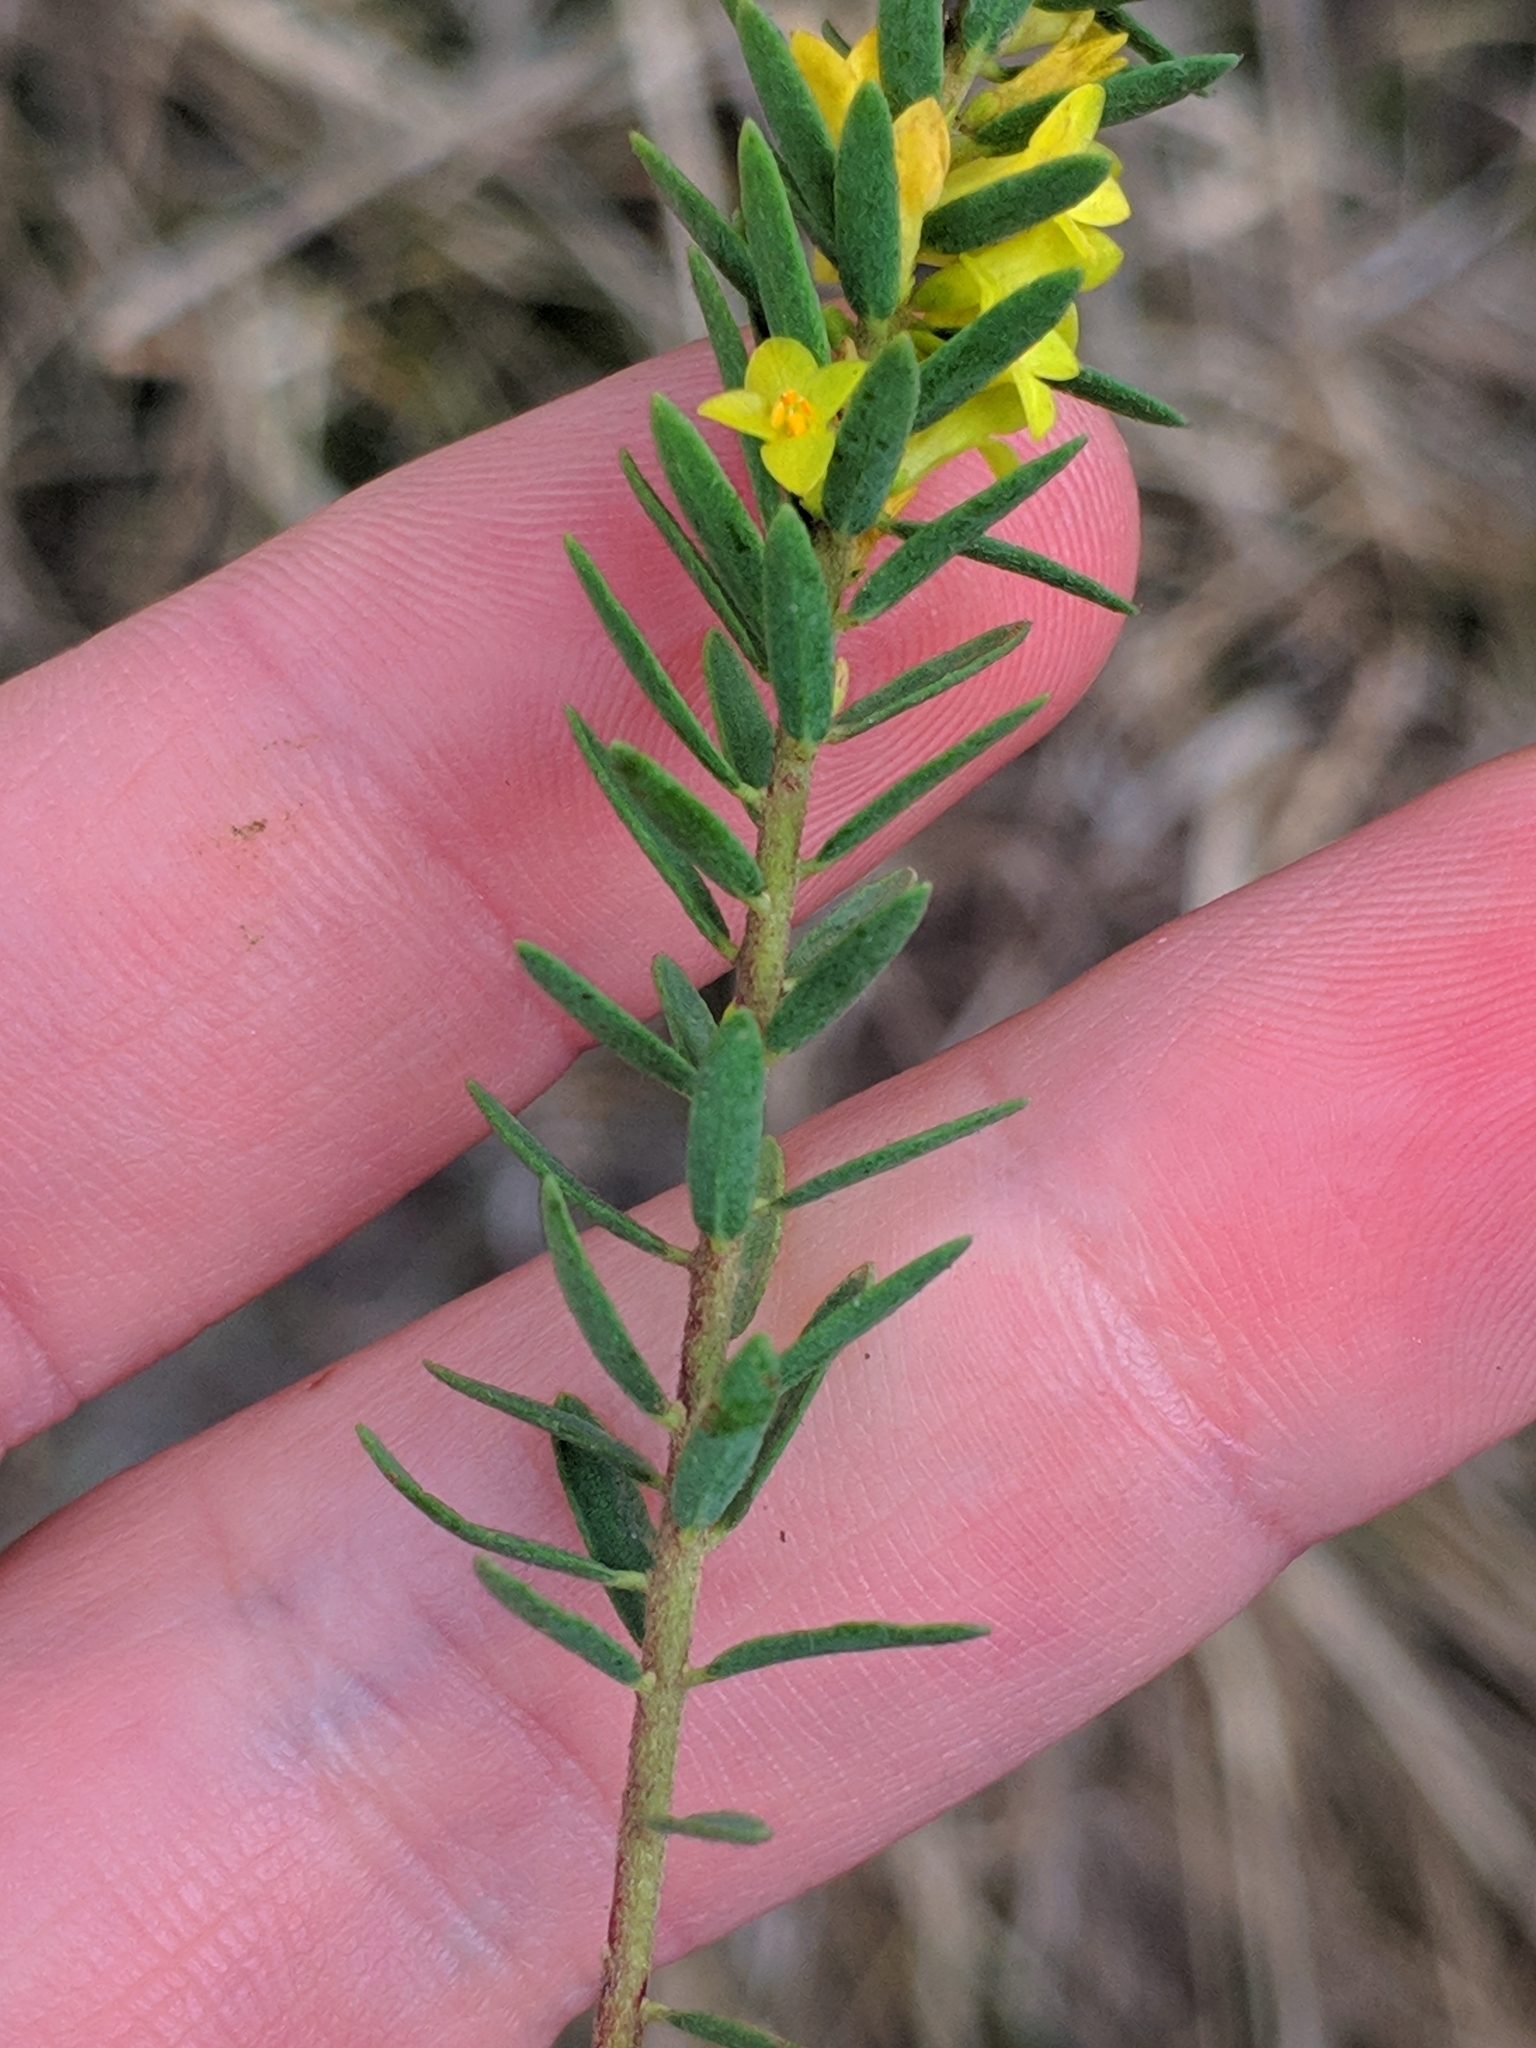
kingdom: Plantae
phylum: Tracheophyta
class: Magnoliopsida
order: Malvales
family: Thymelaeaceae
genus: Thymelaea
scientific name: Thymelaea ruizii
